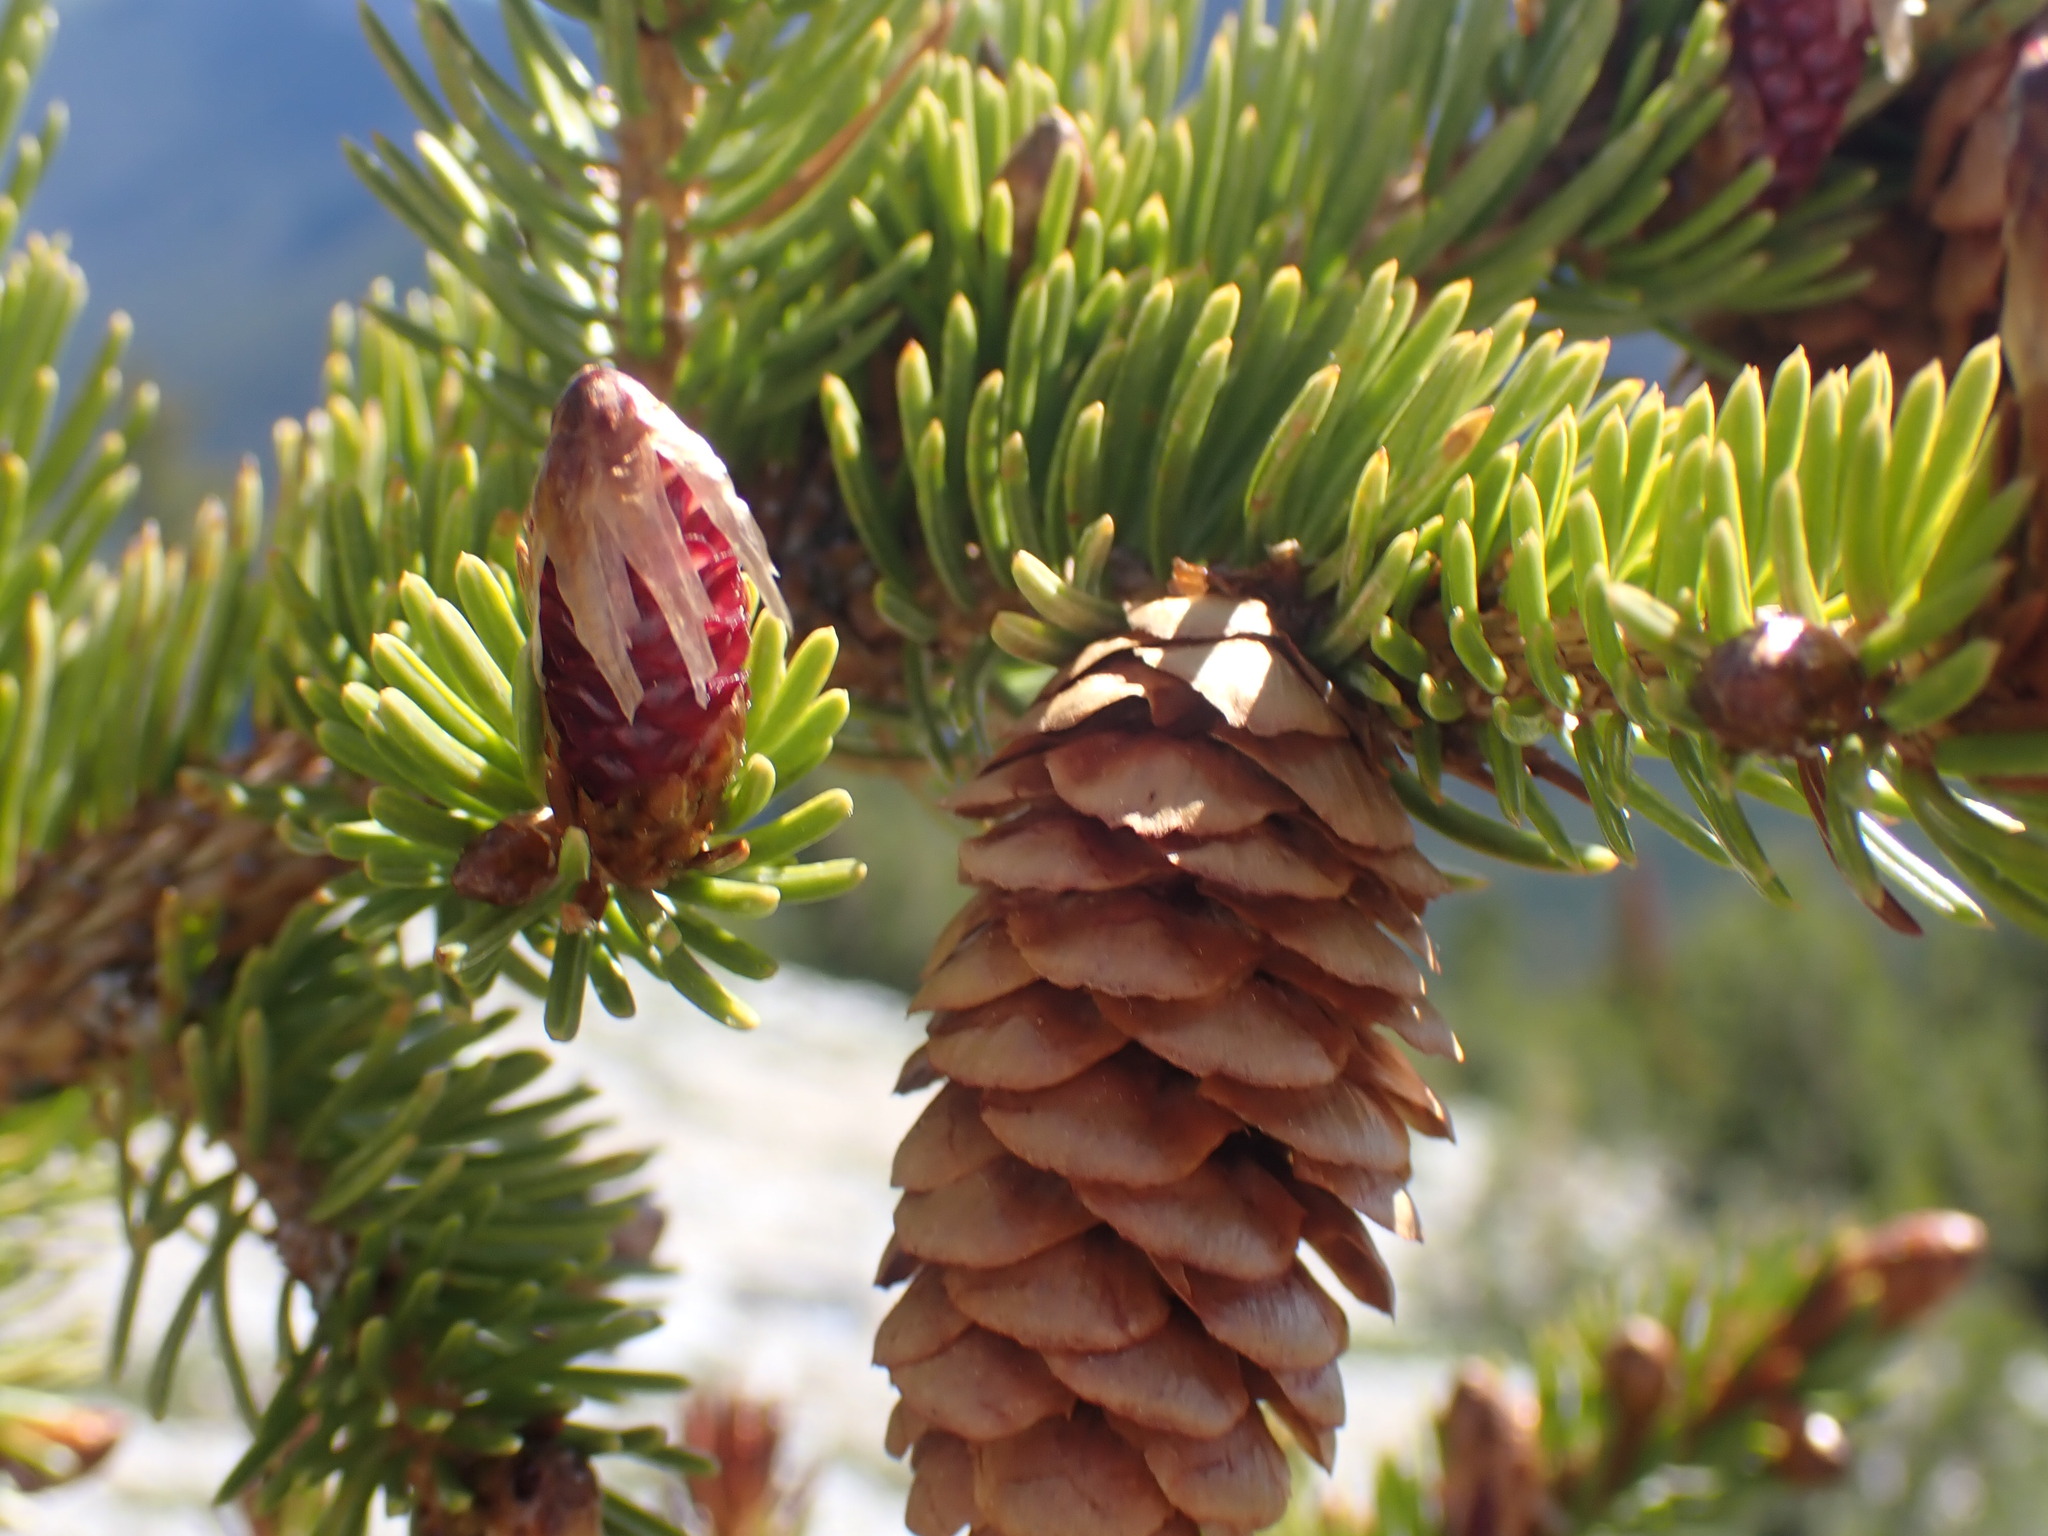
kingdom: Plantae
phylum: Tracheophyta
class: Pinopsida
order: Pinales
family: Pinaceae
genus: Picea
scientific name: Picea engelmannii
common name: Engelmann spruce
